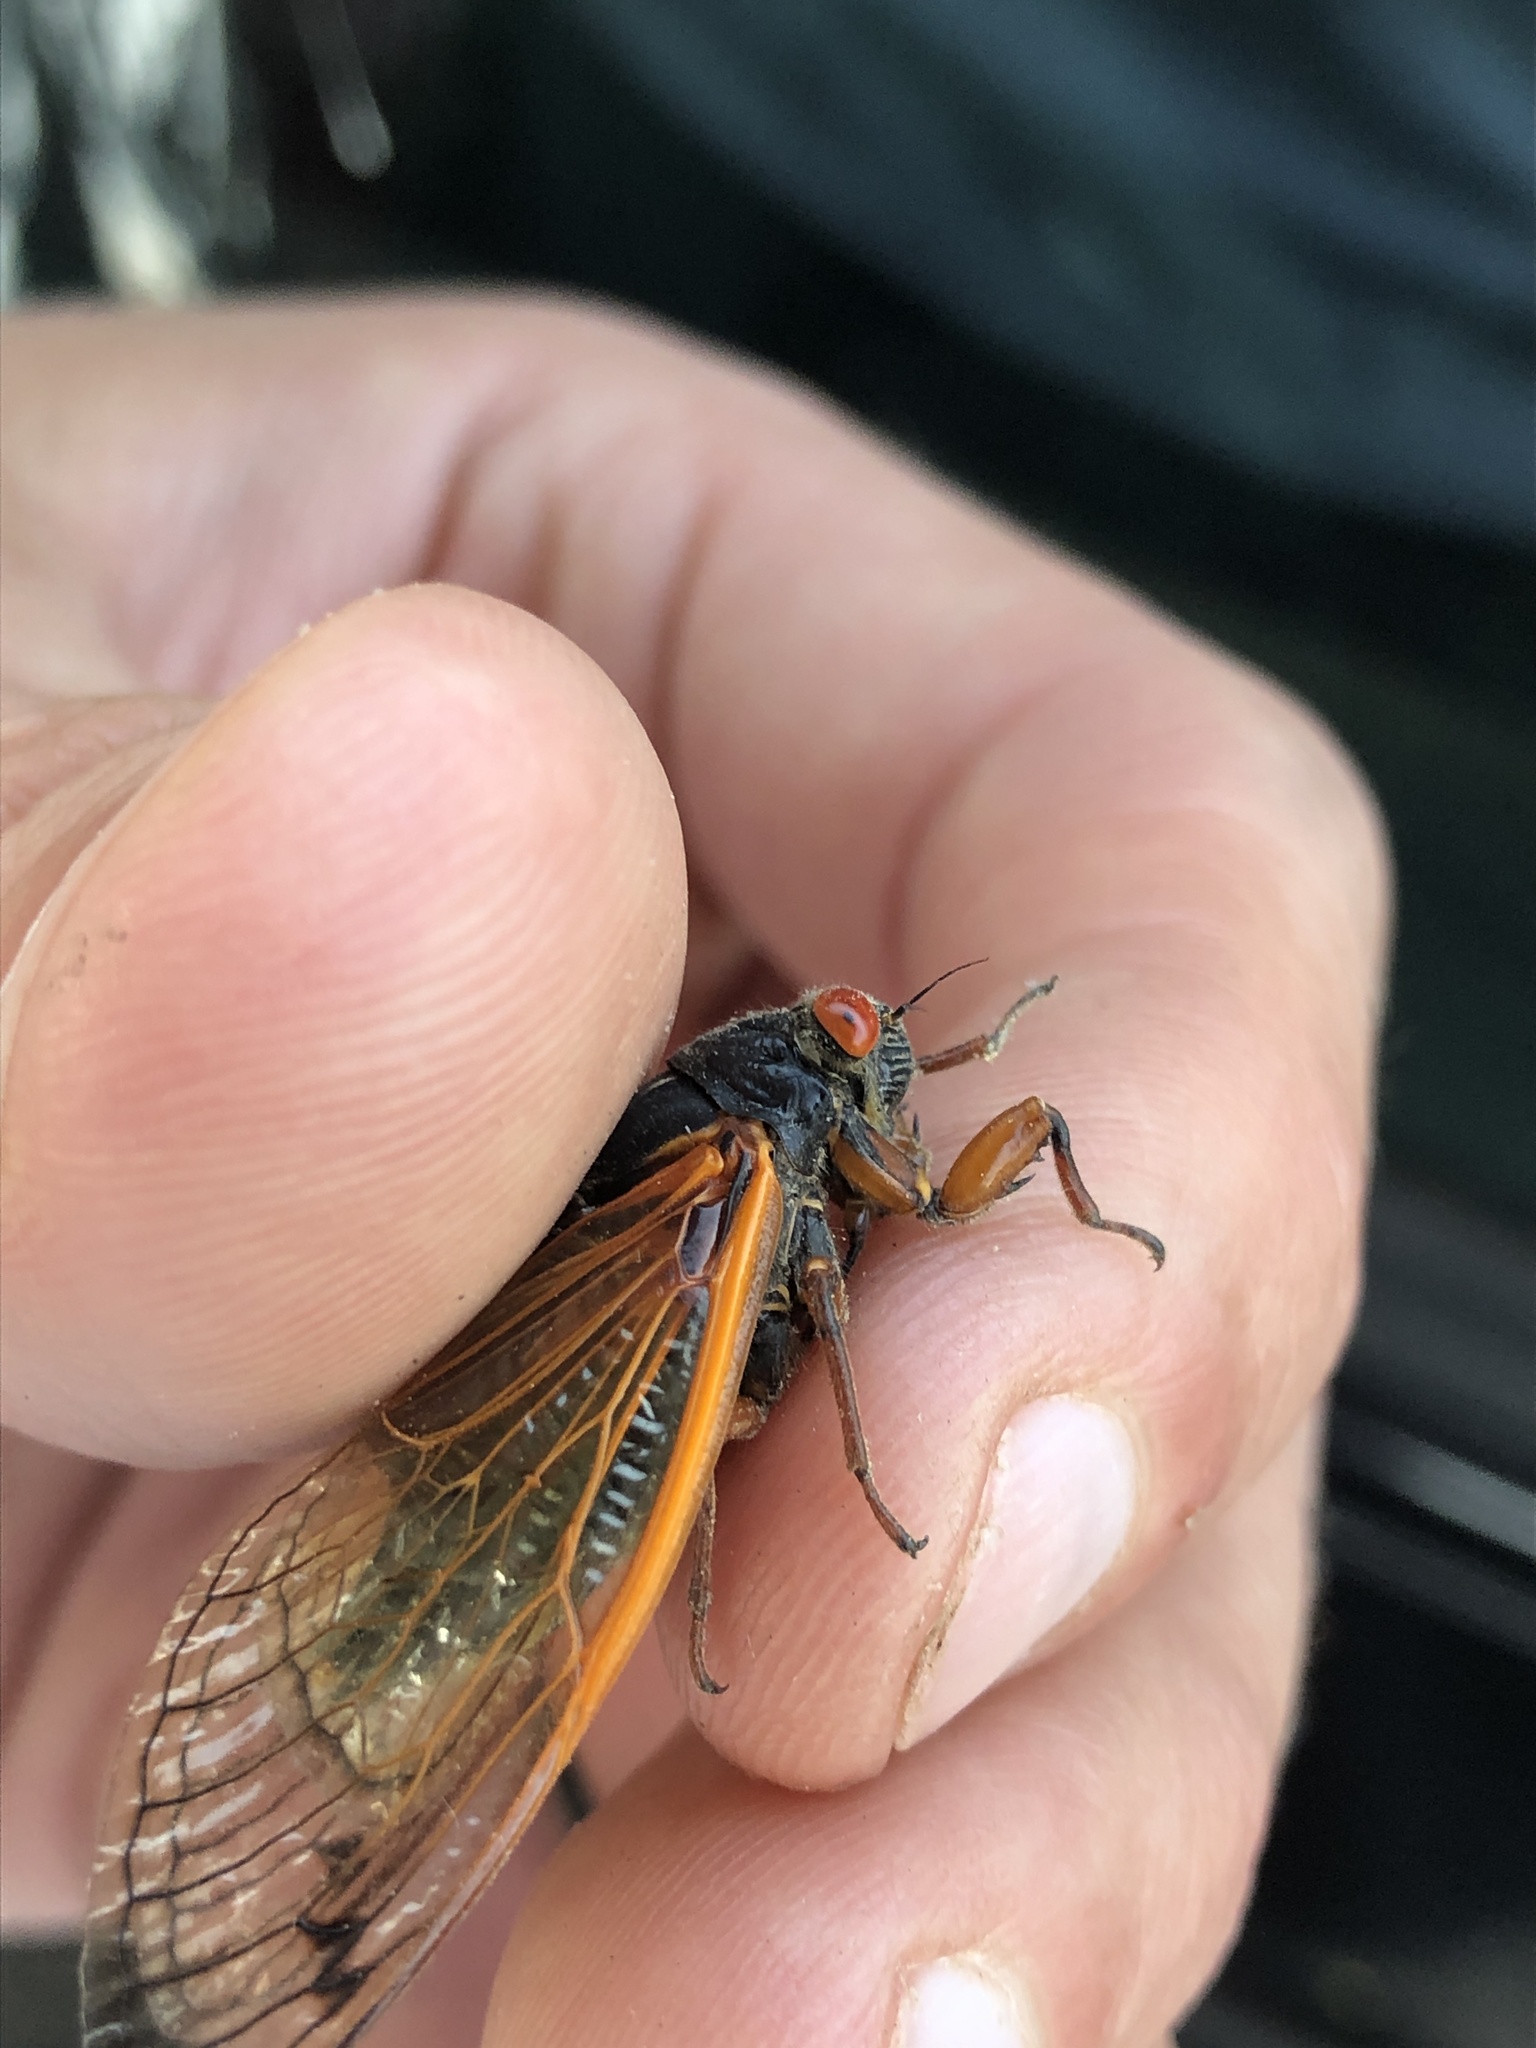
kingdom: Animalia
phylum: Arthropoda
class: Insecta
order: Hemiptera
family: Cicadidae
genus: Magicicada
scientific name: Magicicada cassini
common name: Cassin's 17-year cicada
